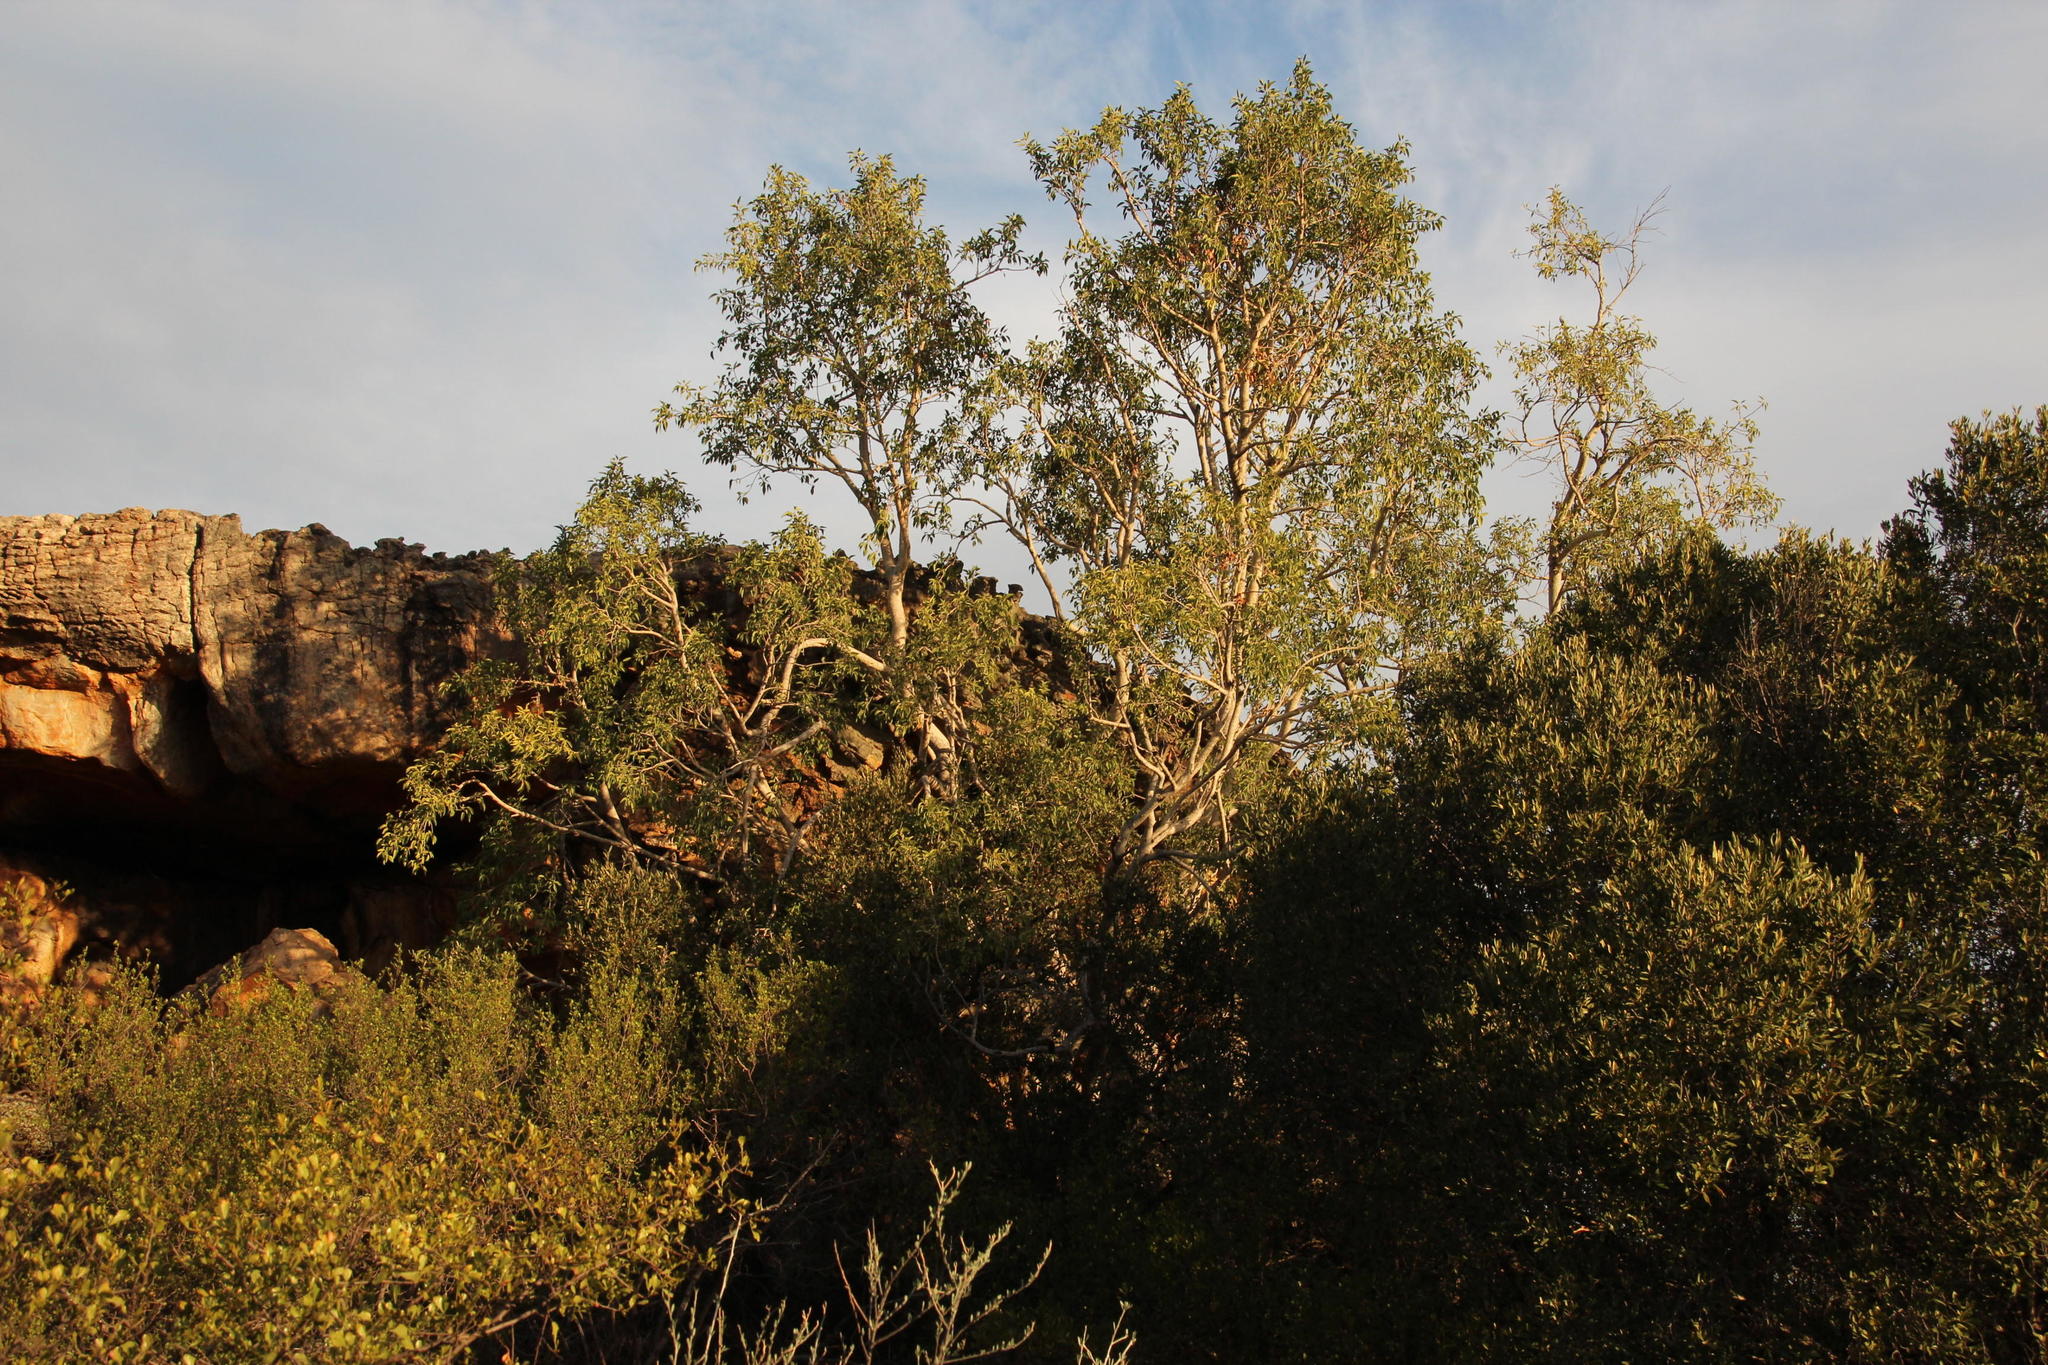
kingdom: Plantae
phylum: Tracheophyta
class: Magnoliopsida
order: Rosales
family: Moraceae
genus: Ficus
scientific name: Ficus cordata
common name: Namaqua rock fig
